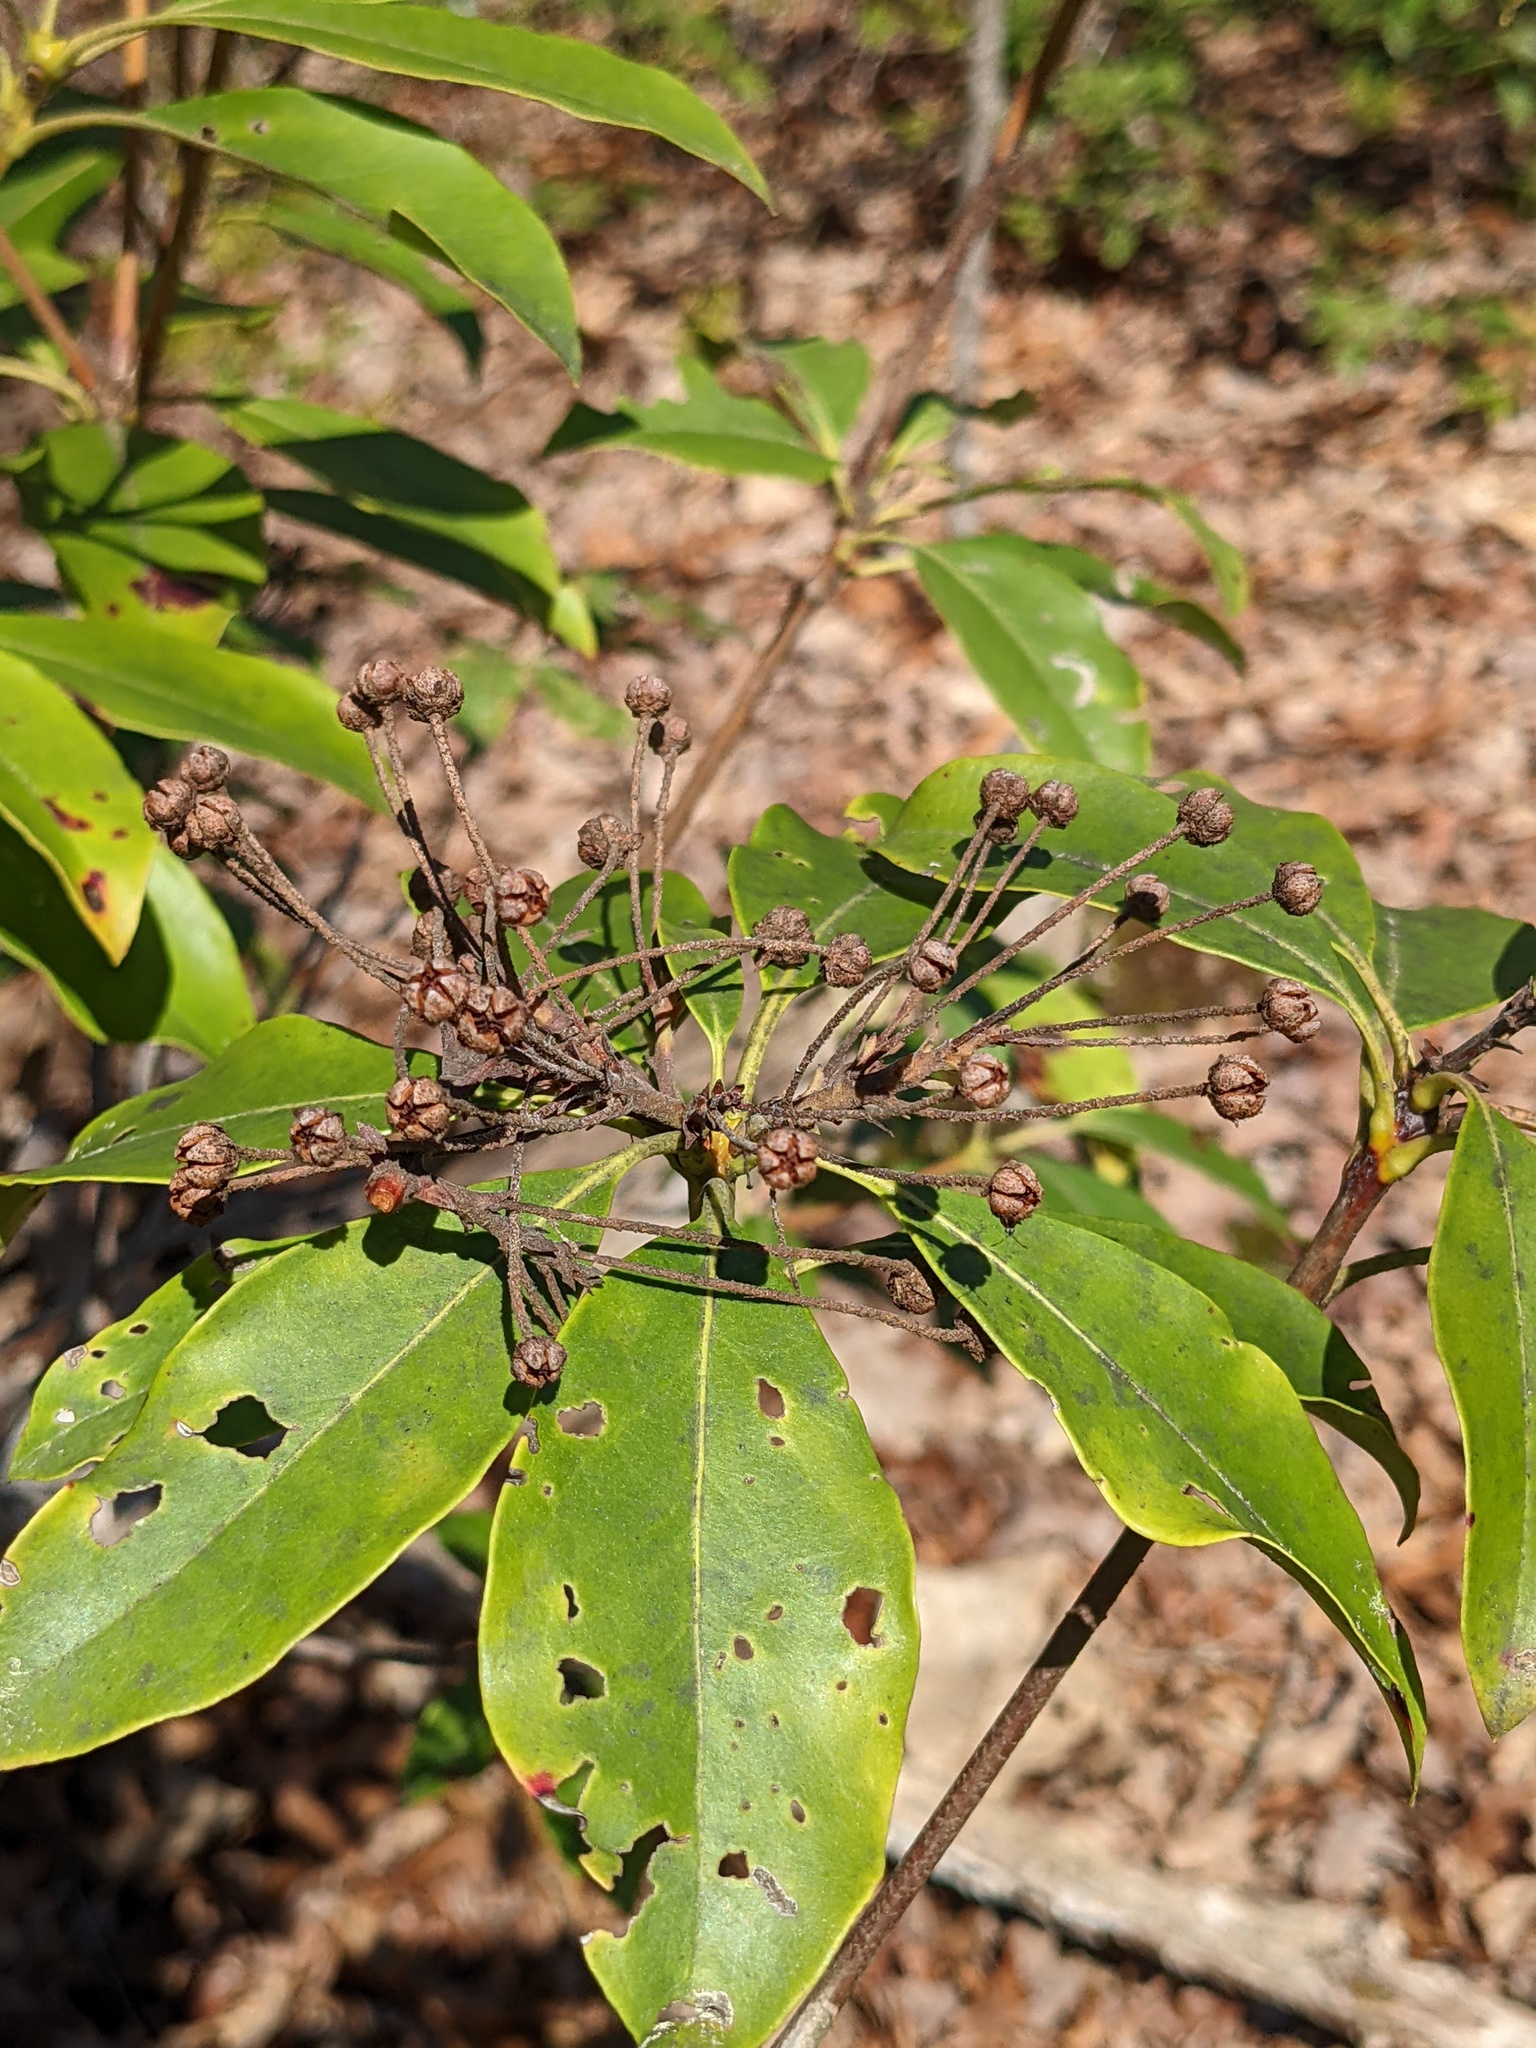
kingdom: Plantae
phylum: Tracheophyta
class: Magnoliopsida
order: Ericales
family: Ericaceae
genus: Kalmia
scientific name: Kalmia latifolia
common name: Mountain-laurel
